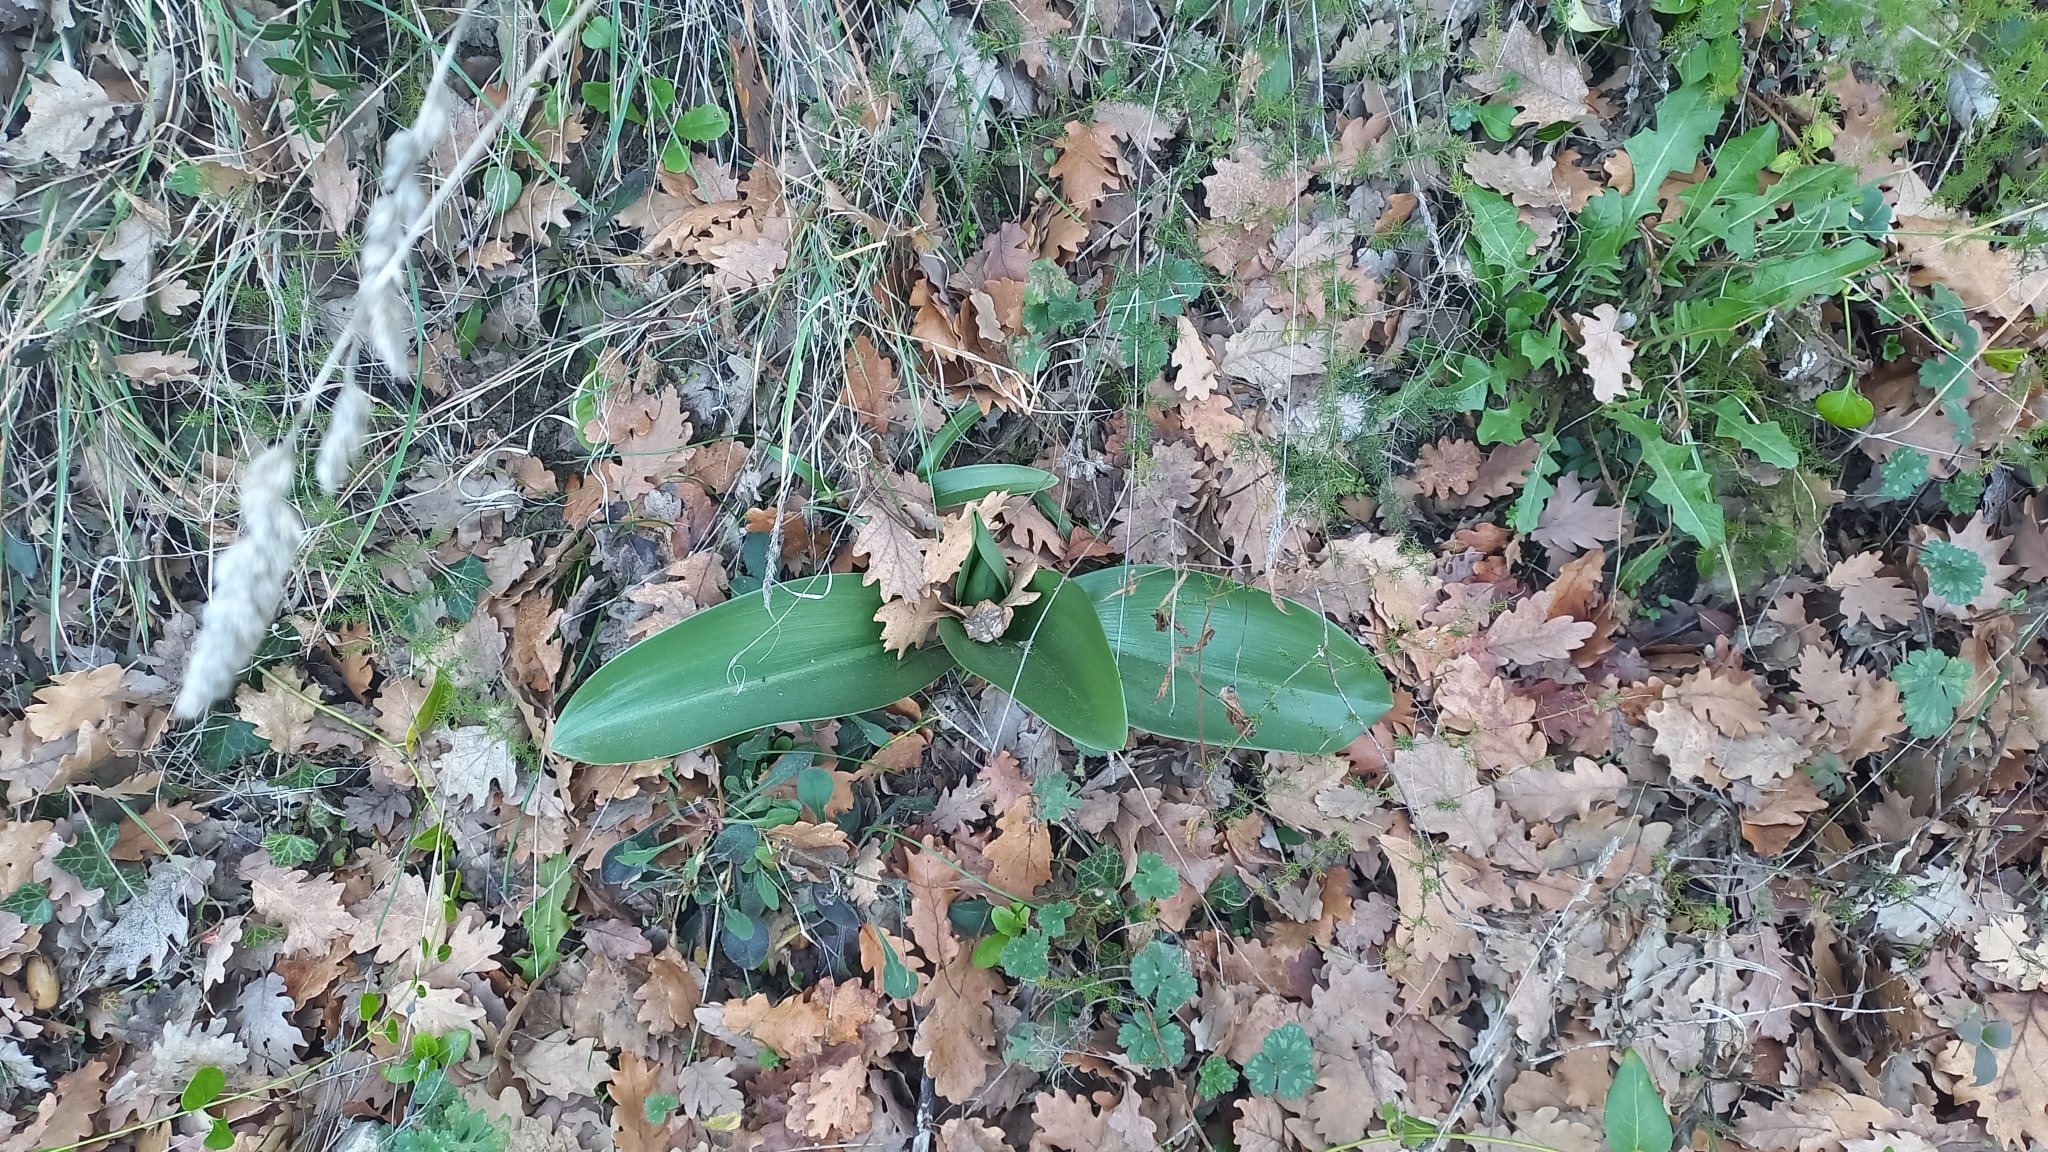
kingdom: Plantae
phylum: Tracheophyta
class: Liliopsida
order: Asparagales
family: Orchidaceae
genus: Himantoglossum
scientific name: Himantoglossum robertianum
